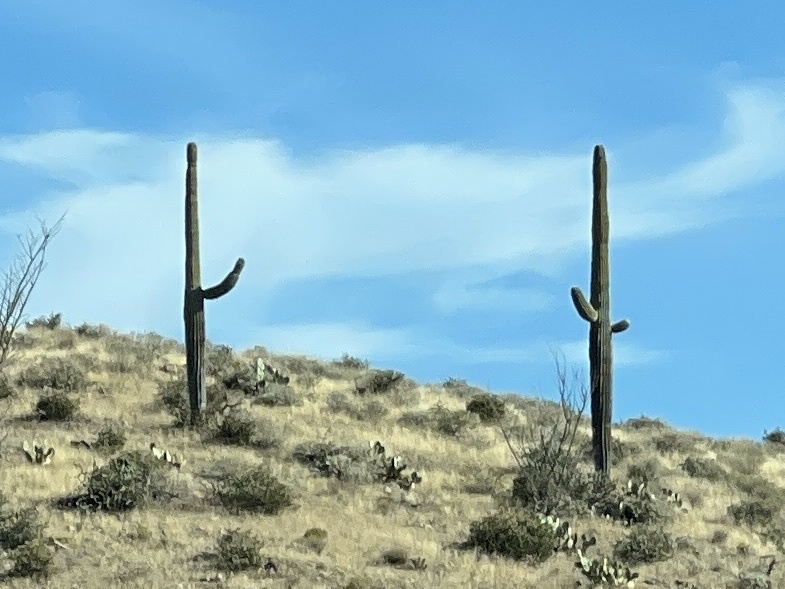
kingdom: Plantae
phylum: Tracheophyta
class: Magnoliopsida
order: Caryophyllales
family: Cactaceae
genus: Carnegiea
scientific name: Carnegiea gigantea
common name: Saguaro
